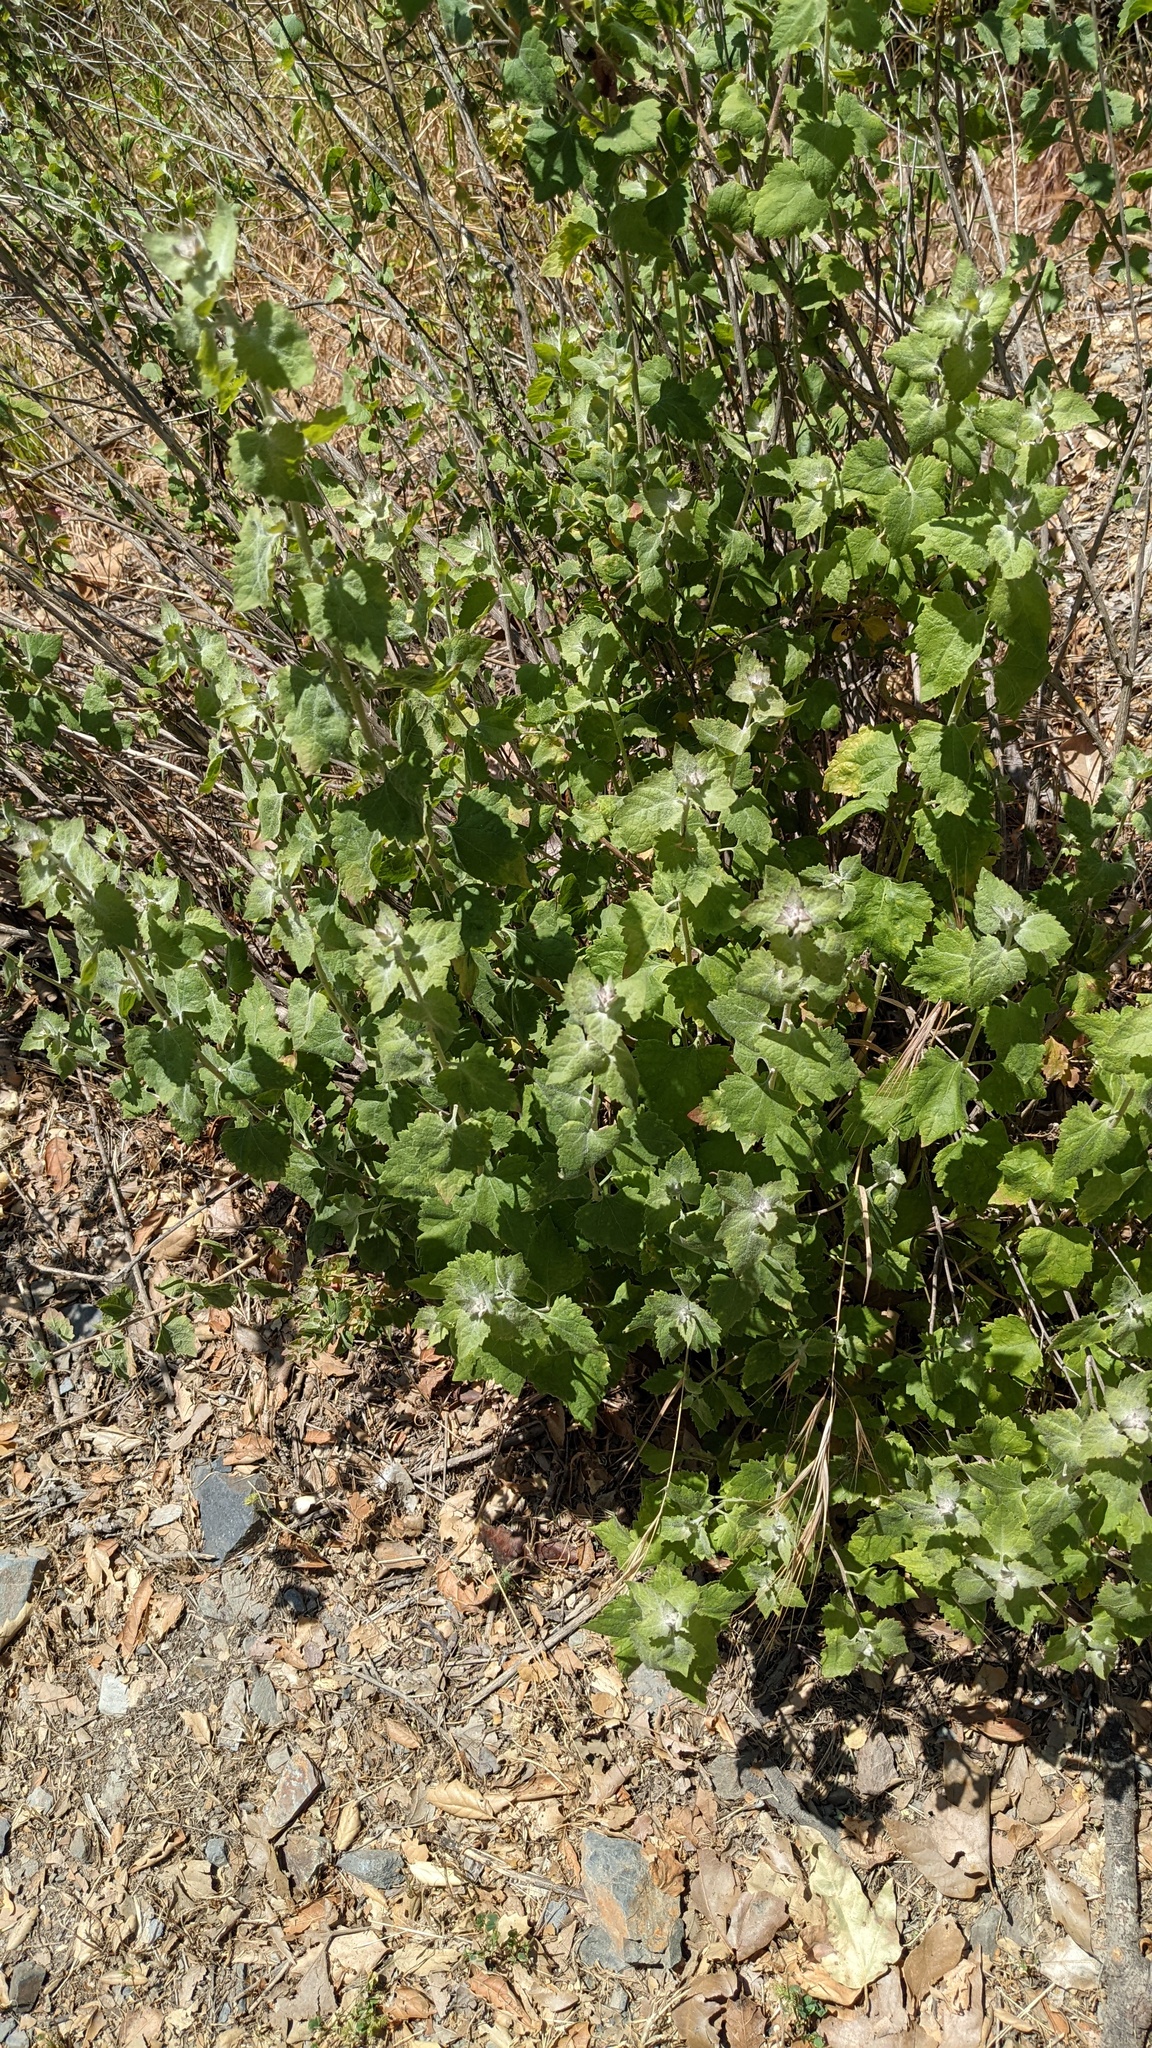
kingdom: Plantae
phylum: Tracheophyta
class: Magnoliopsida
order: Asterales
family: Asteraceae
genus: Brickellia
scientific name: Brickellia californica
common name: California brickellbush
